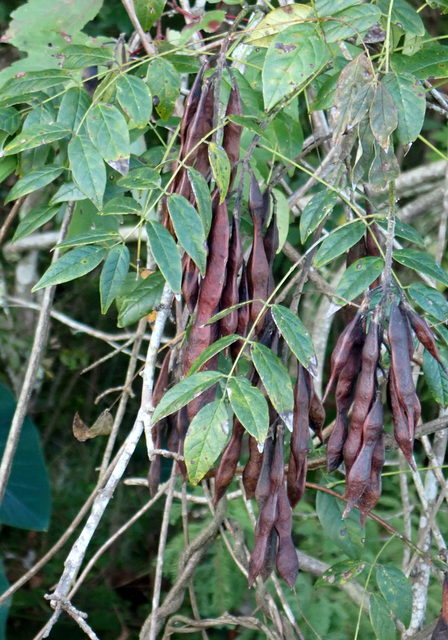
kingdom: Plantae
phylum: Tracheophyta
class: Magnoliopsida
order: Fabales
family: Fabaceae
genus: Wisteria
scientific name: Wisteria frutescens
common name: American wisteria
